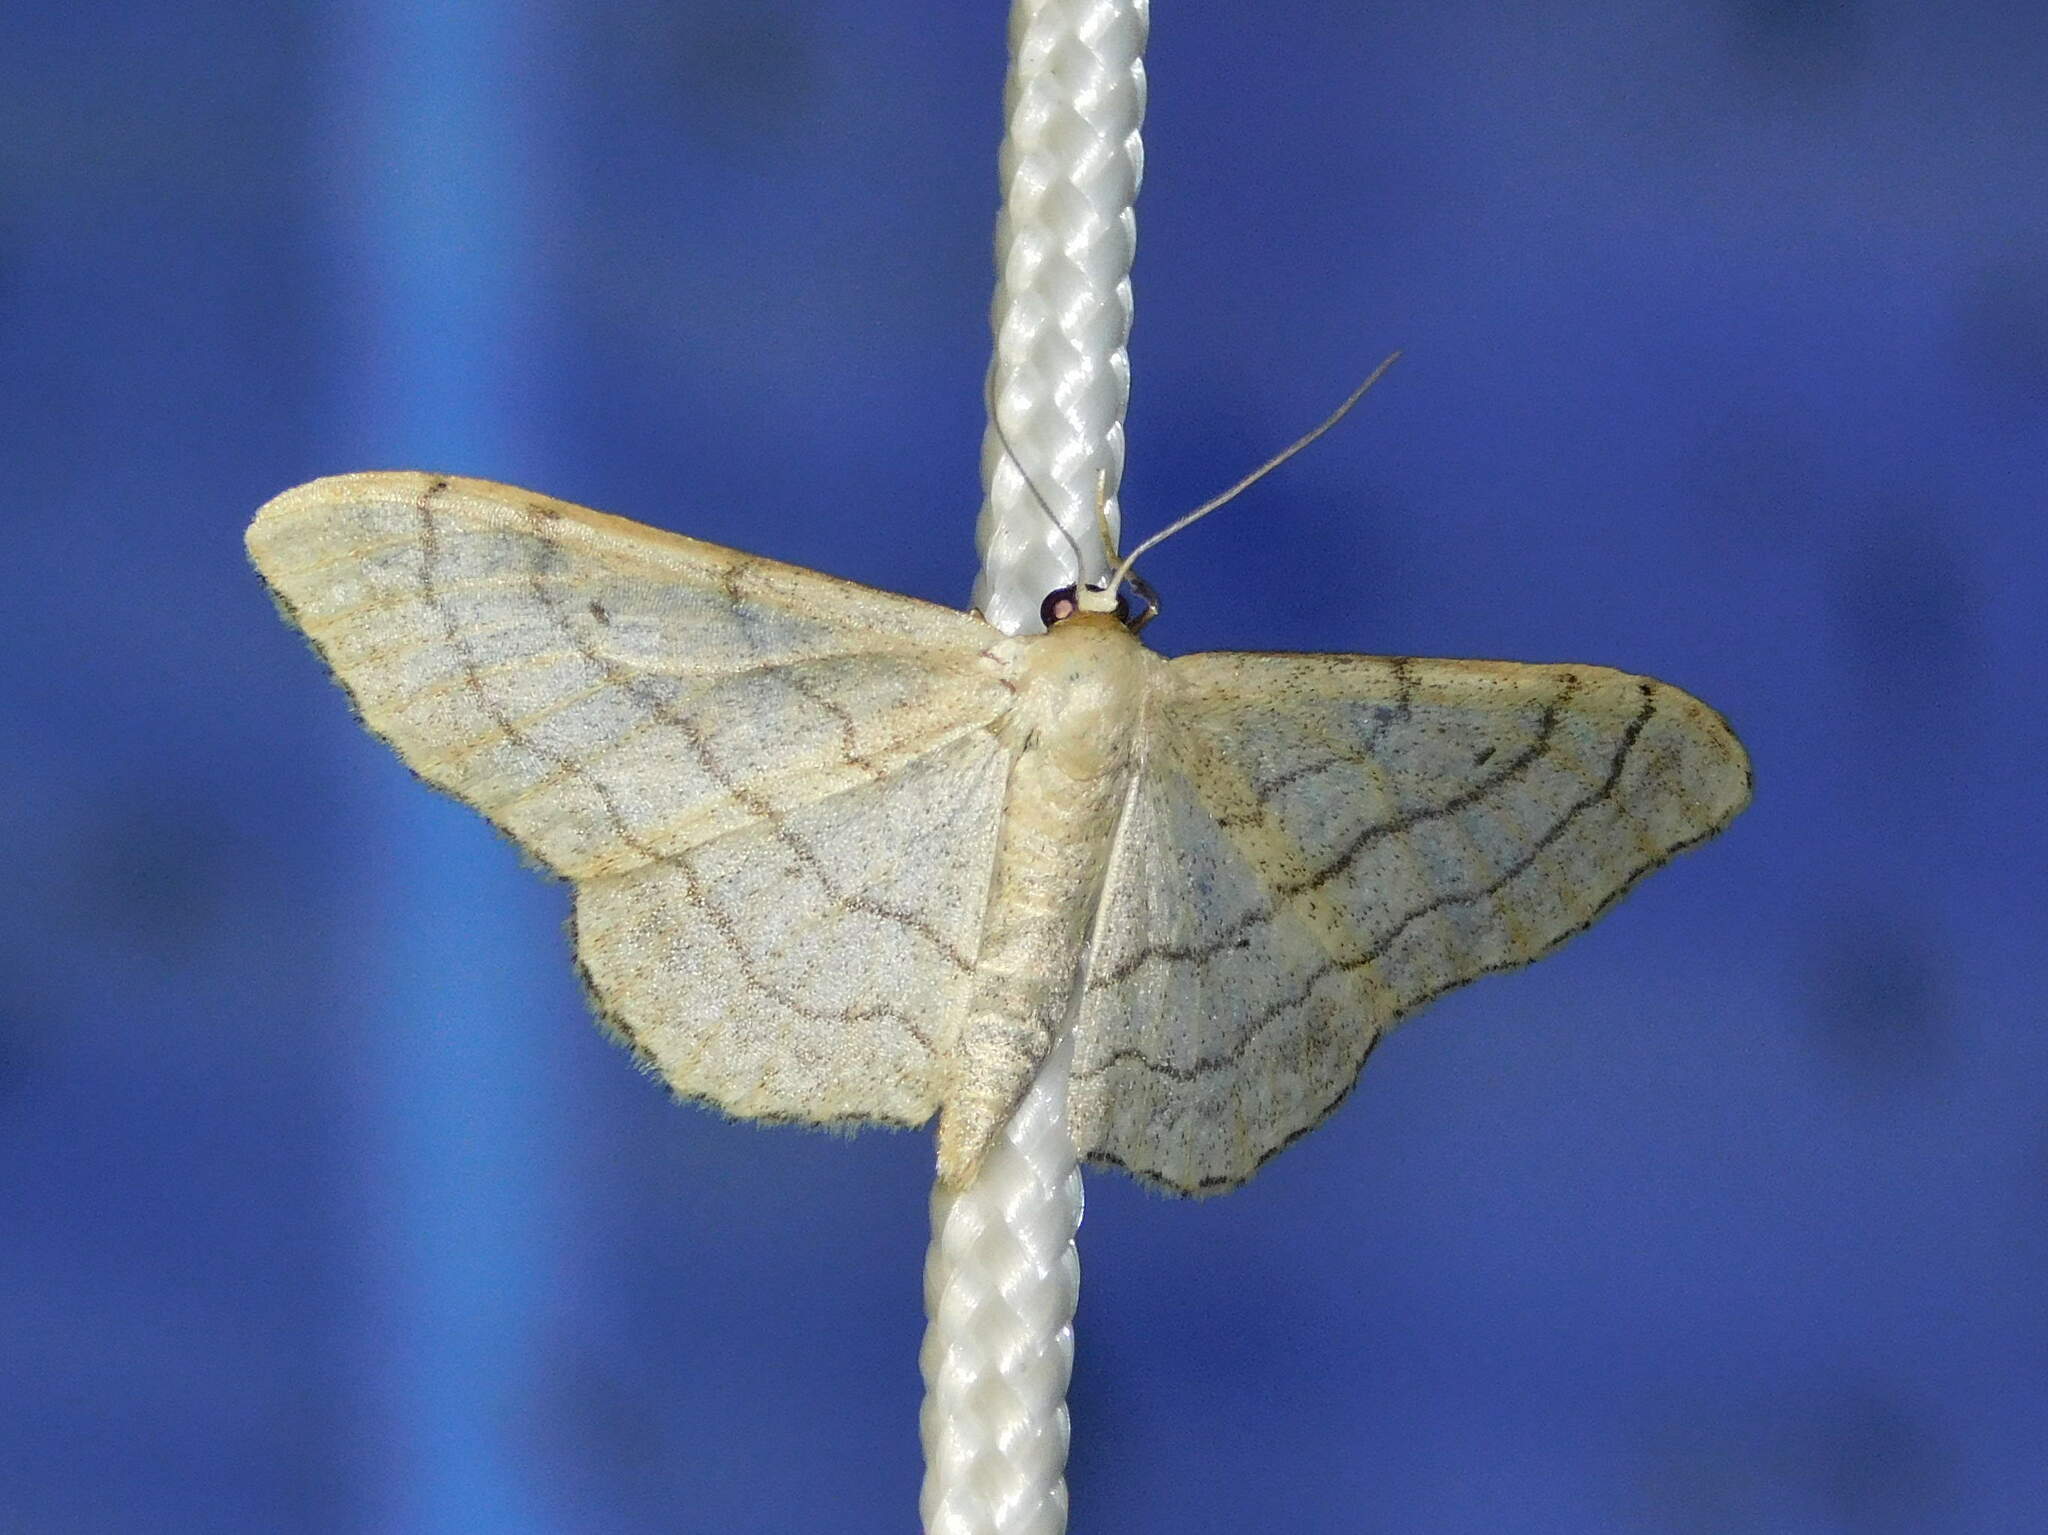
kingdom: Animalia
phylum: Arthropoda
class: Insecta
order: Lepidoptera
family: Geometridae
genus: Idaea
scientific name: Idaea aversata
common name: Riband wave
